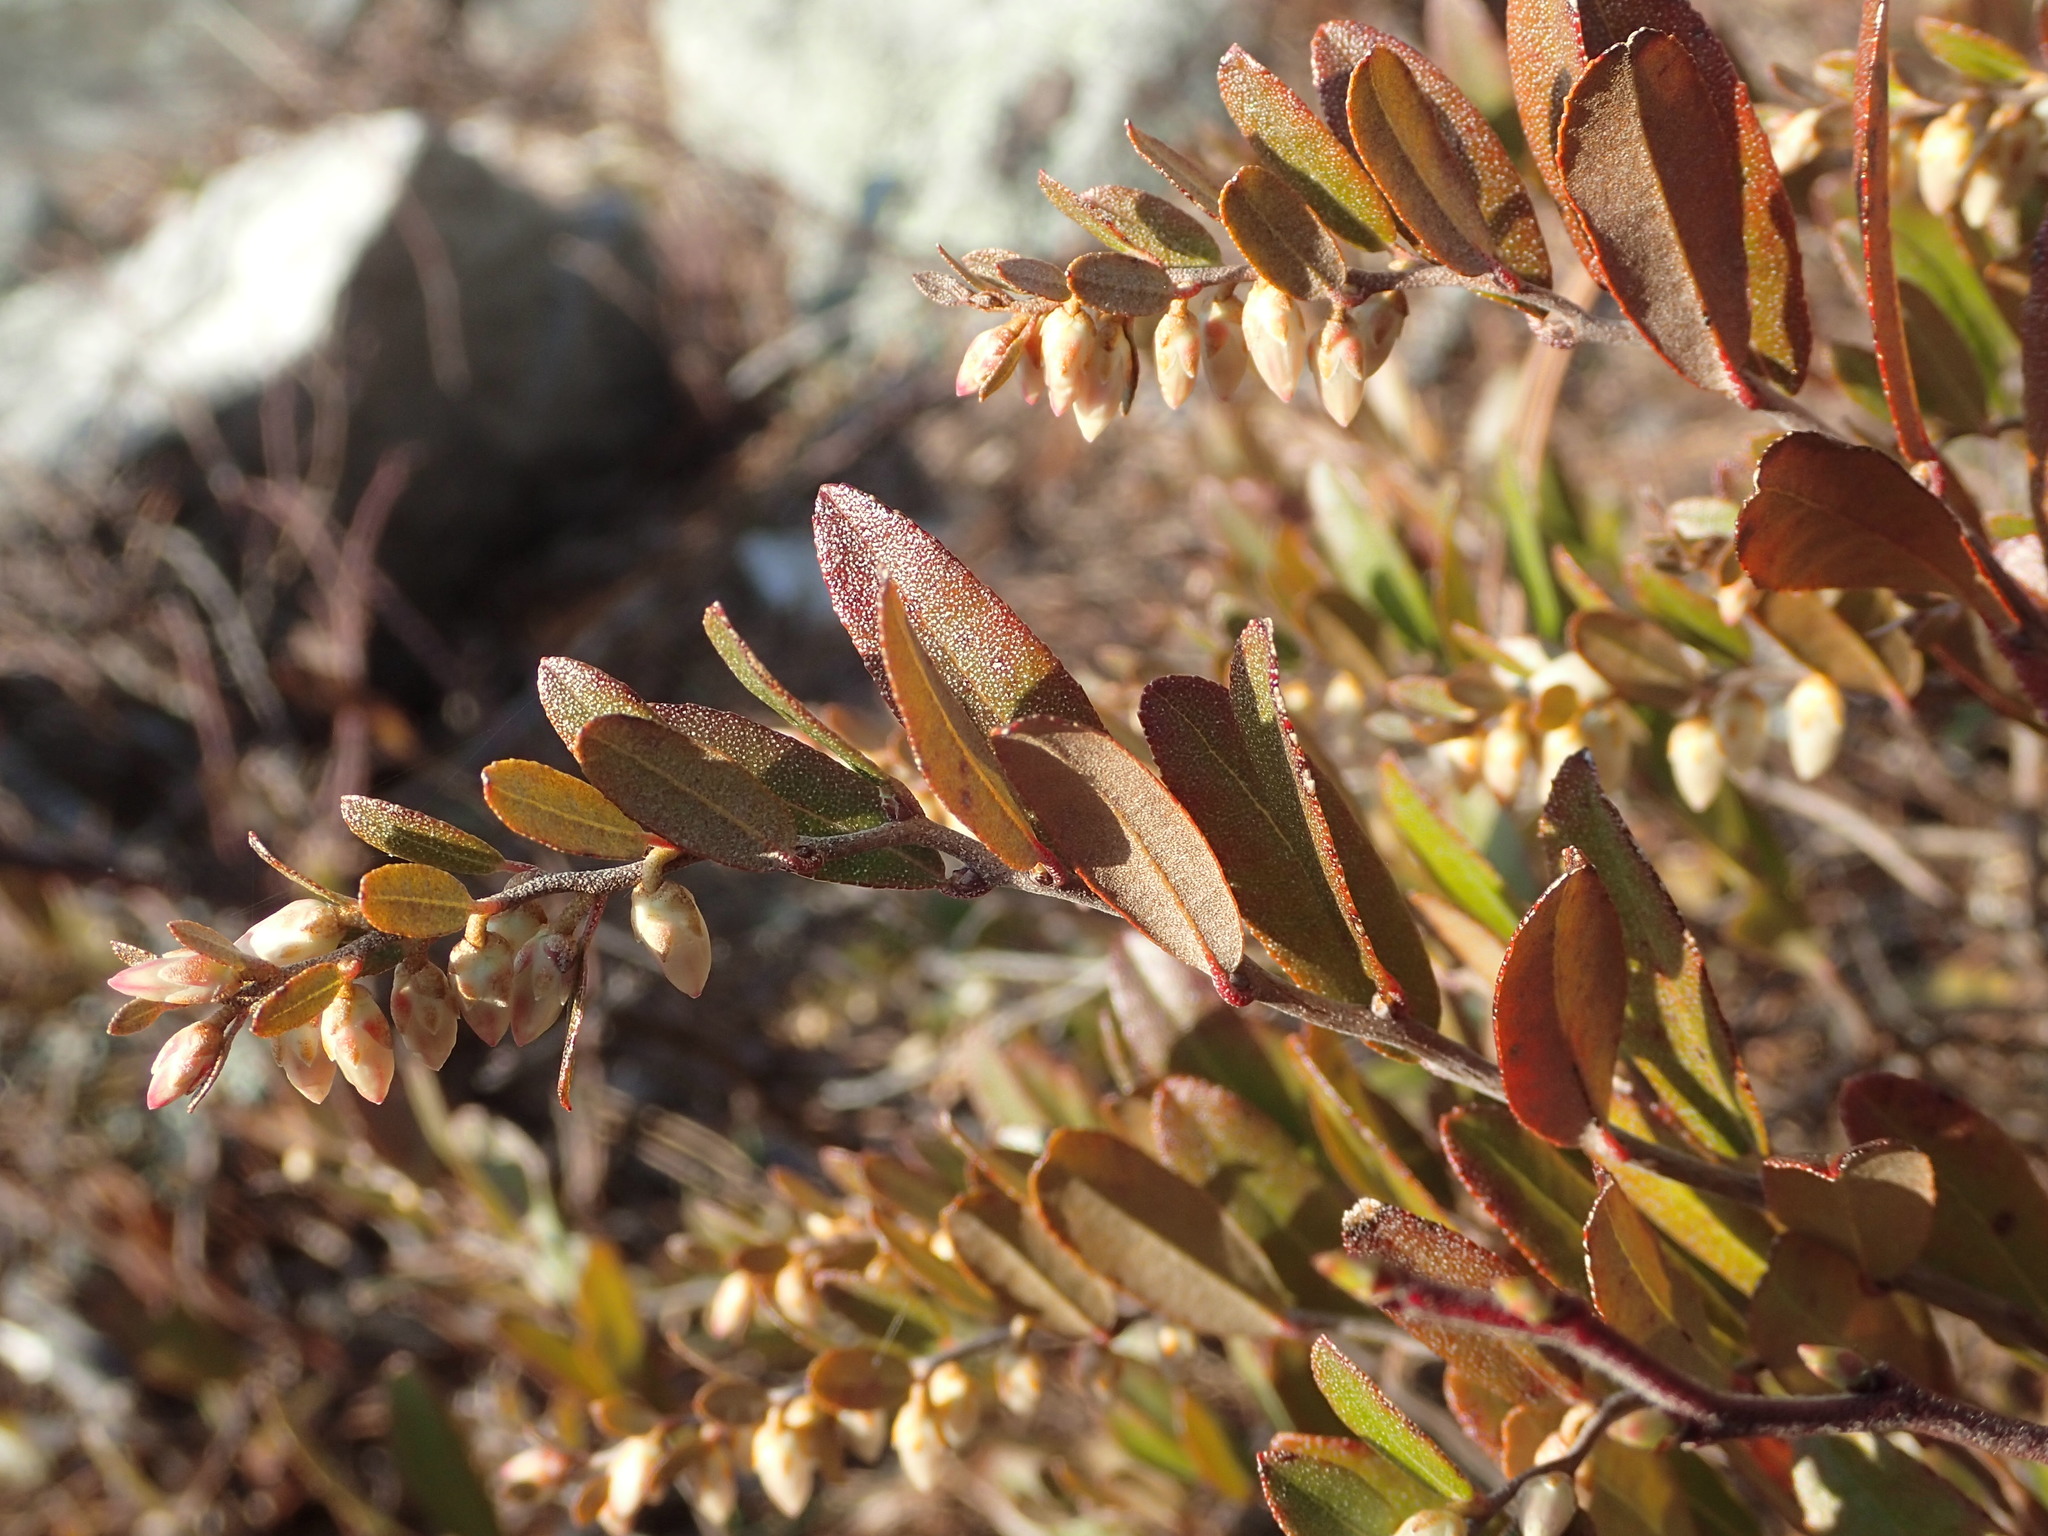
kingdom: Plantae
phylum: Tracheophyta
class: Magnoliopsida
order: Ericales
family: Ericaceae
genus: Chamaedaphne
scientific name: Chamaedaphne calyculata
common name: Leatherleaf
